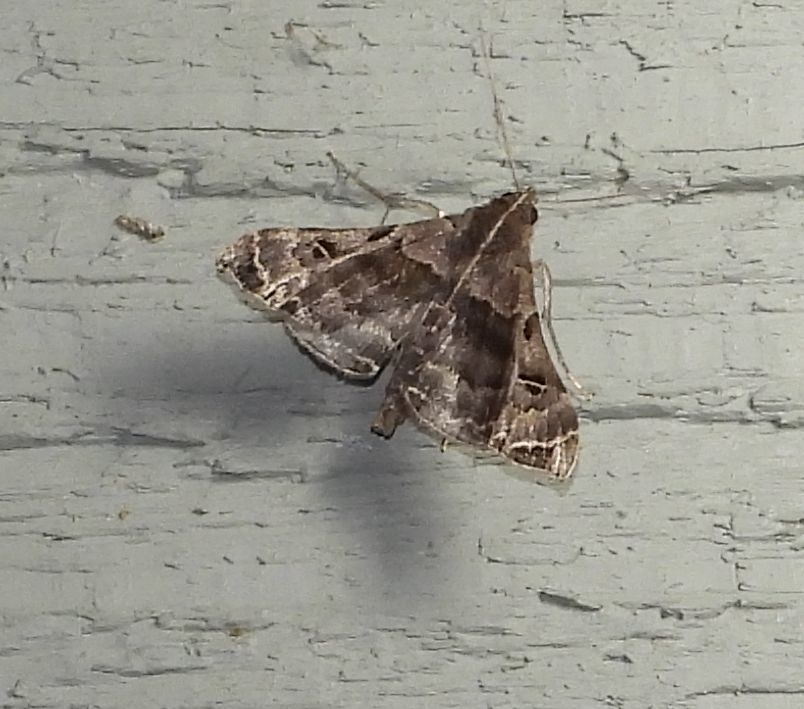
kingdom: Animalia
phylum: Arthropoda
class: Insecta
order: Lepidoptera
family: Erebidae
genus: Palthis
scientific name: Palthis asopialis
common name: Faint-spotted palthis moth
